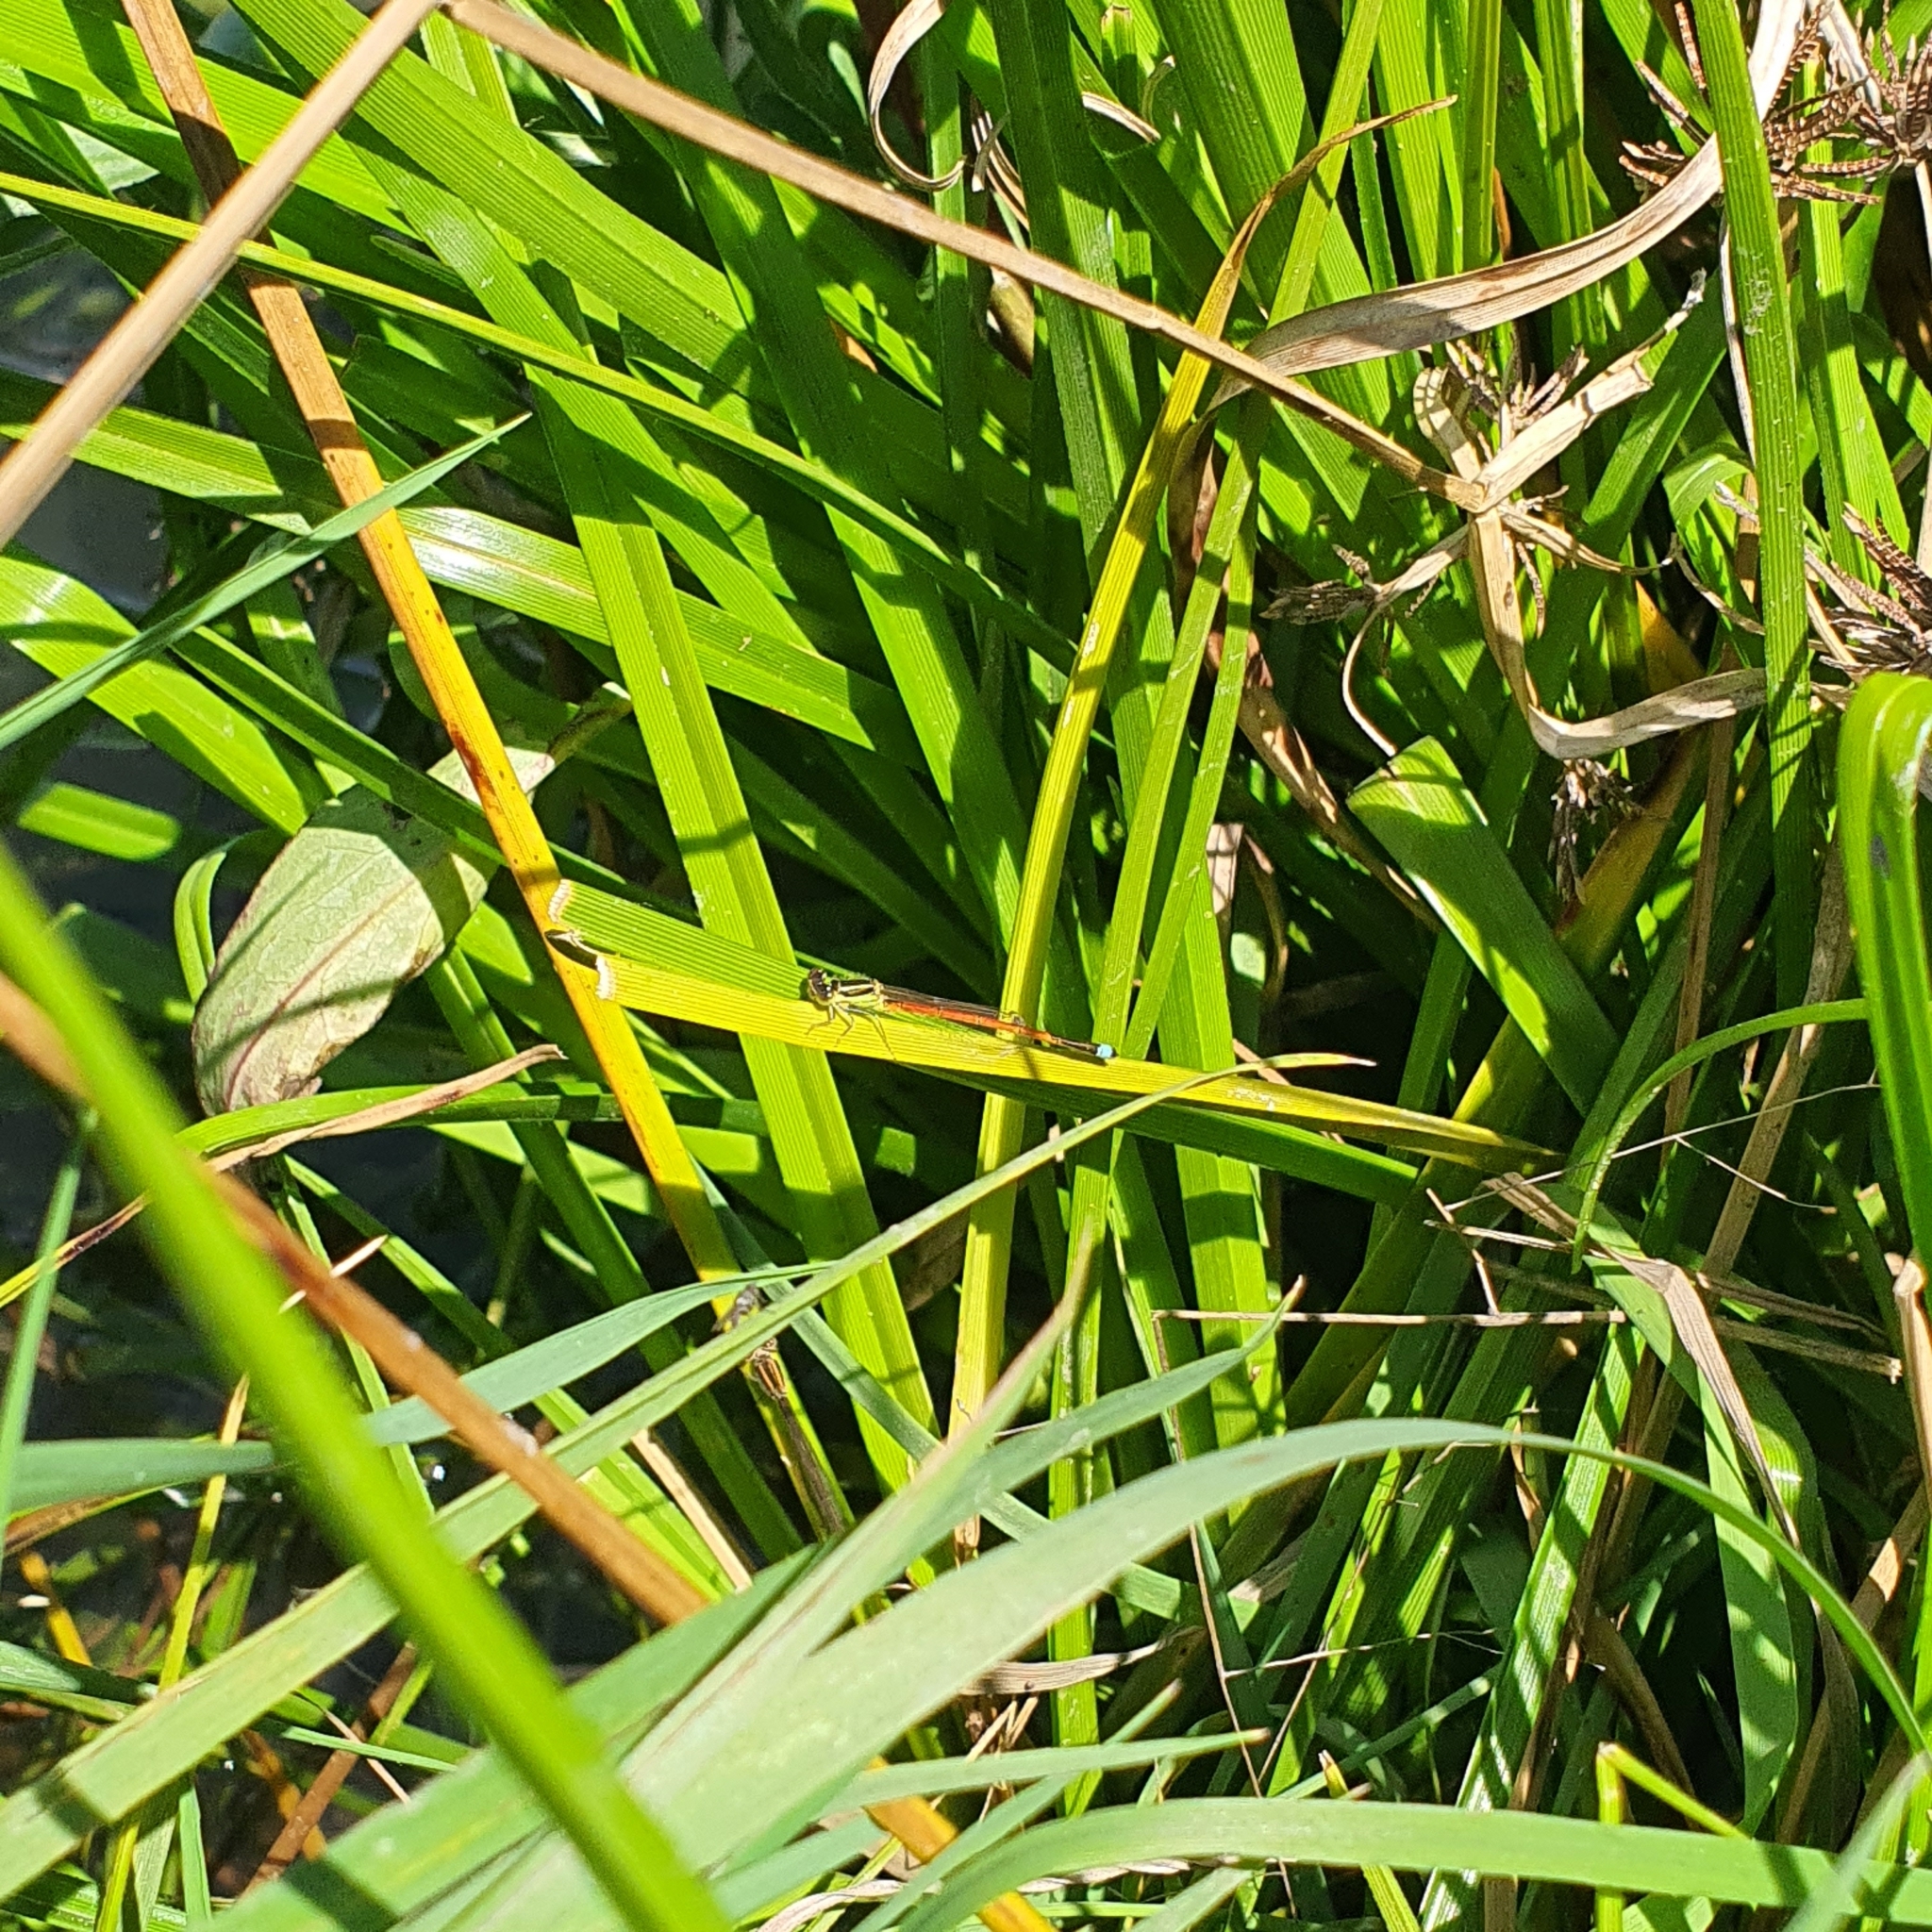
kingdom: Animalia
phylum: Arthropoda
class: Insecta
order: Odonata
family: Coenagrionidae
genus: Ischnura
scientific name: Ischnura aurora
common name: Gossamer damselfly
